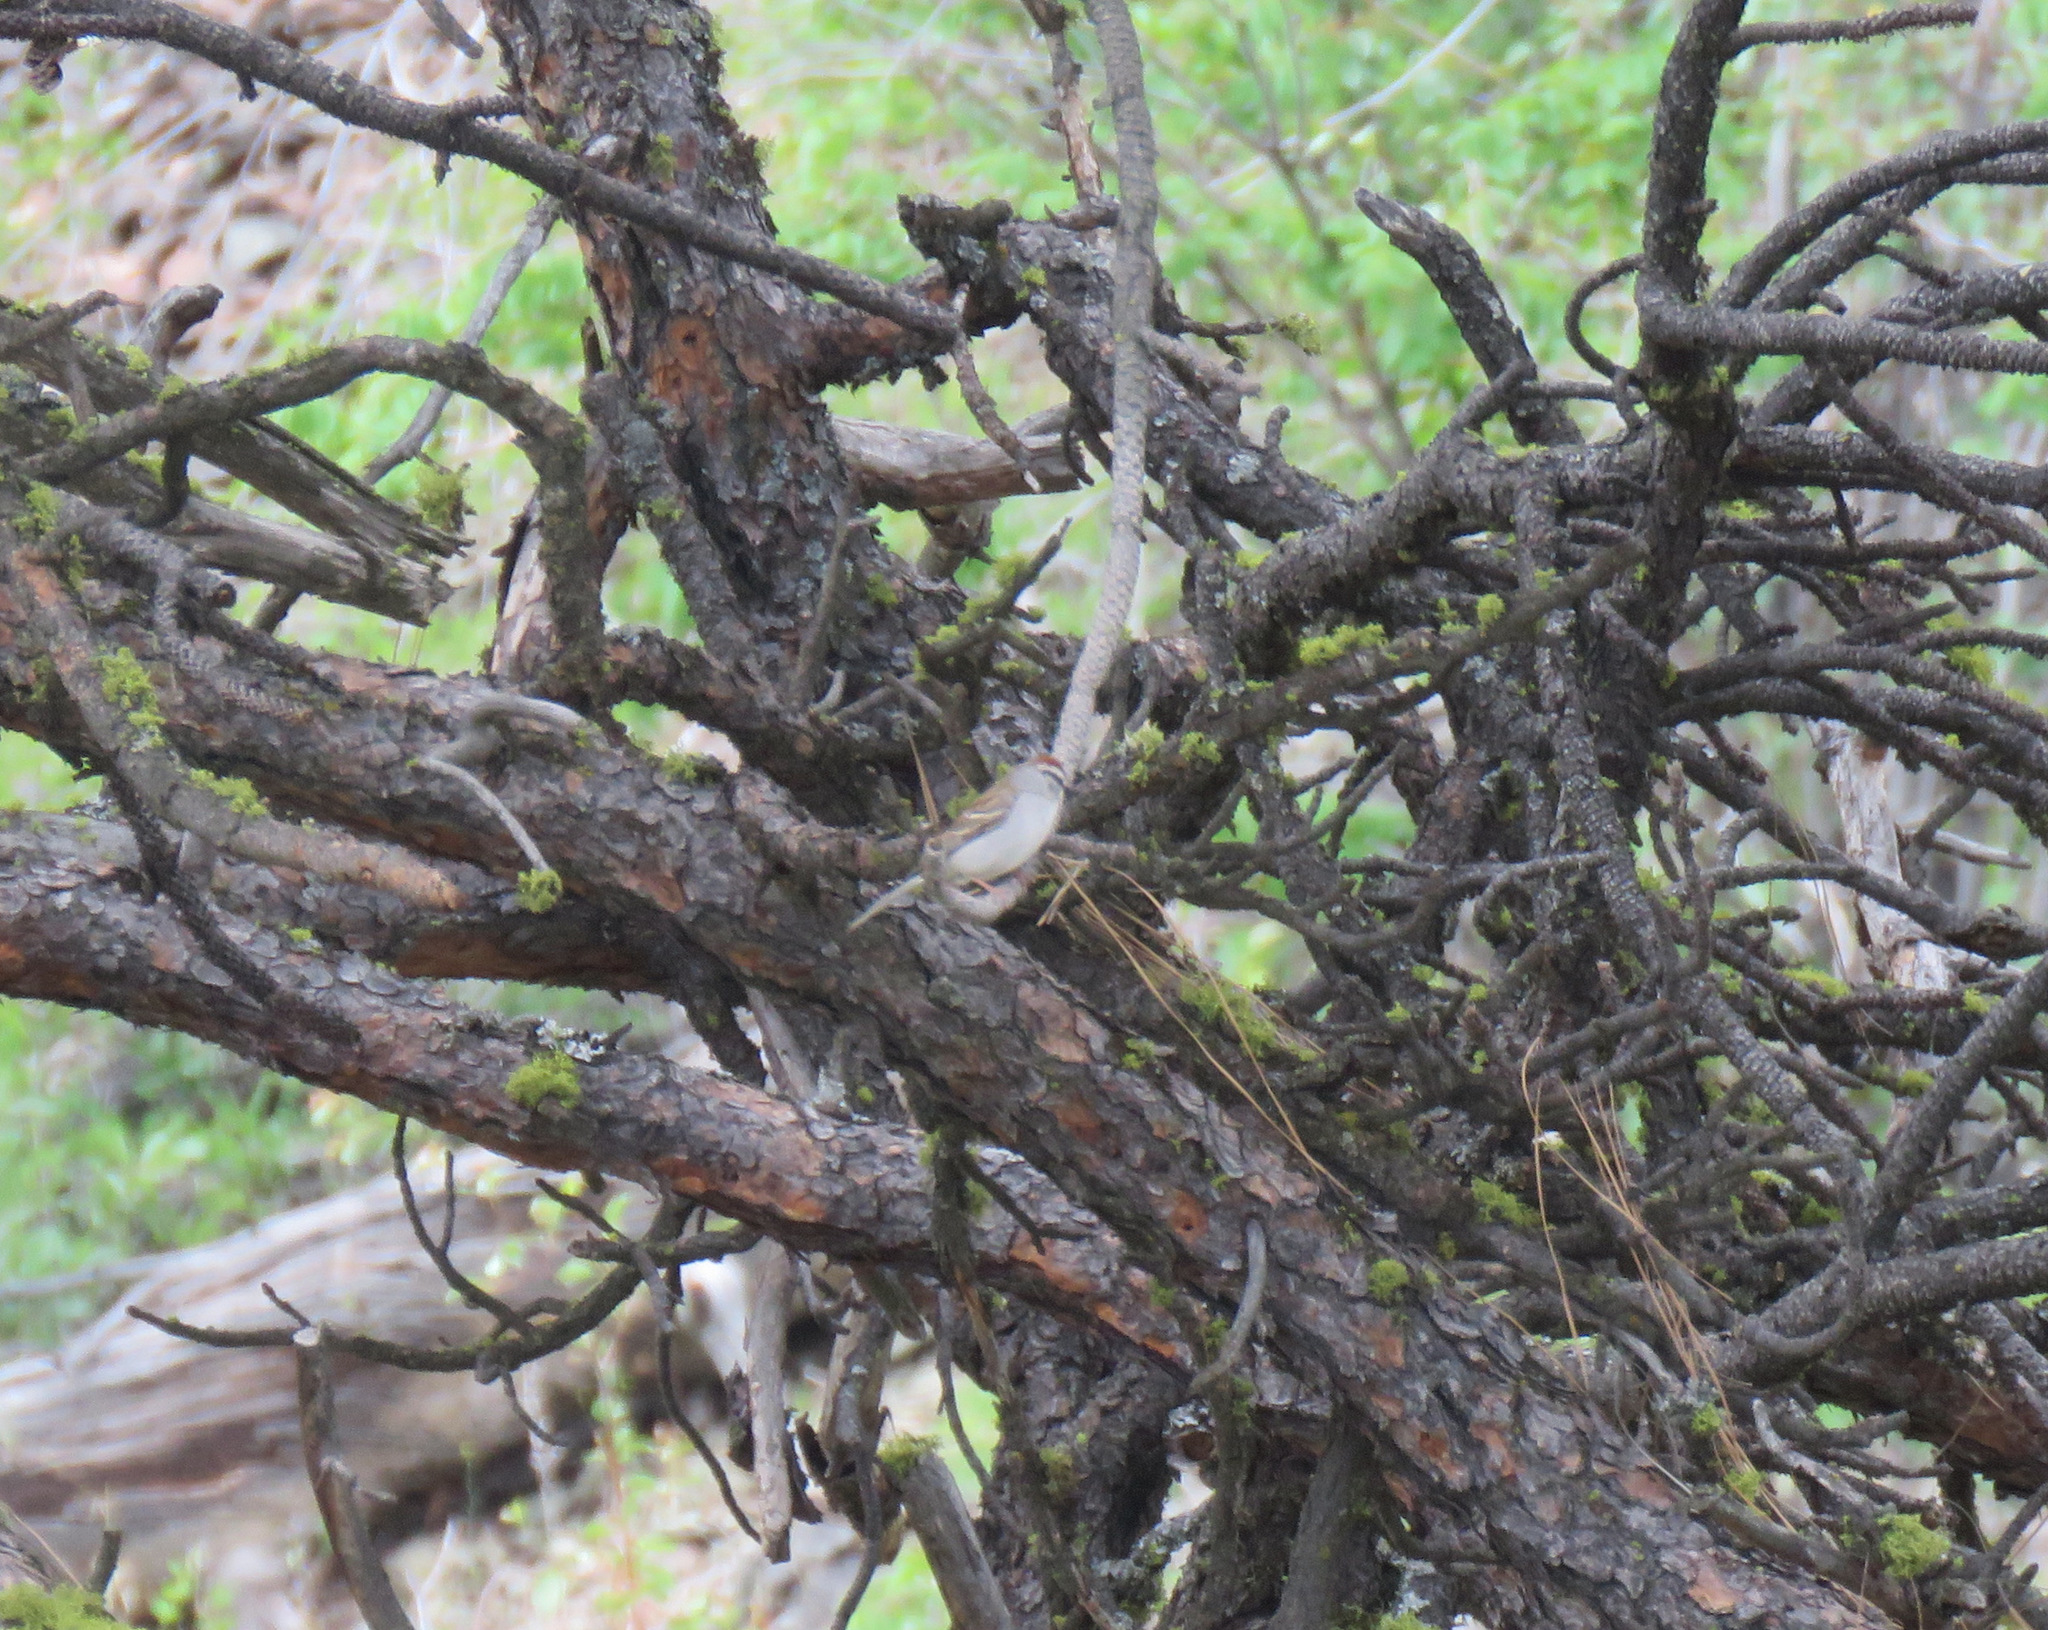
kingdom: Animalia
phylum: Chordata
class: Aves
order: Passeriformes
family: Passerellidae
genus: Spizella
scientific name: Spizella passerina
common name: Chipping sparrow
